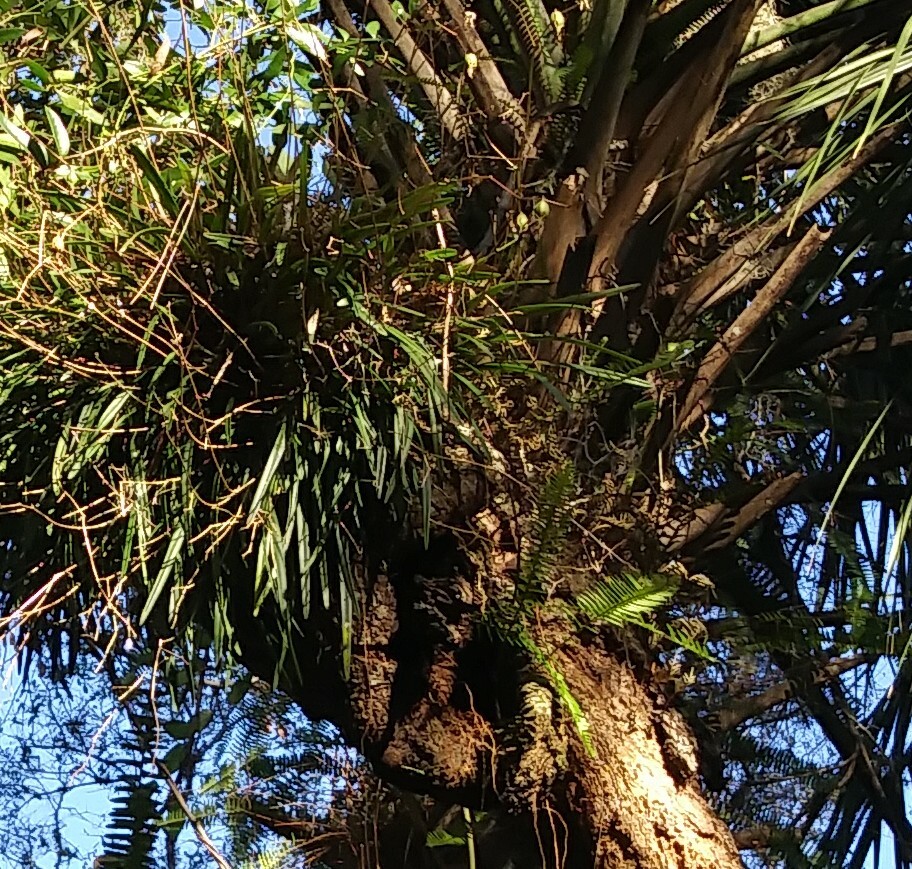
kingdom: Plantae
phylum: Tracheophyta
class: Liliopsida
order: Asparagales
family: Orchidaceae
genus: Encyclia
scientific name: Encyclia tampensis
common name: Florida butterfly orchid
